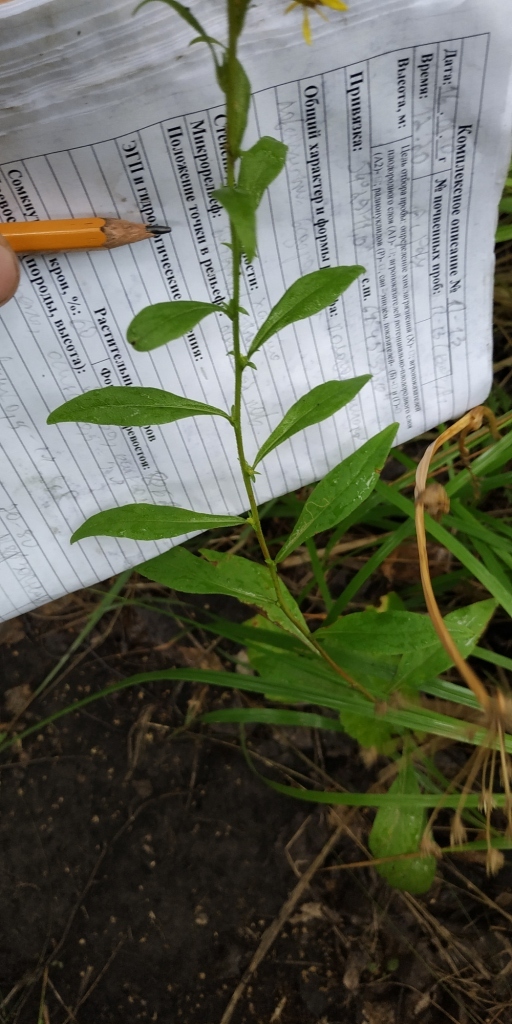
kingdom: Plantae
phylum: Tracheophyta
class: Magnoliopsida
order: Asterales
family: Asteraceae
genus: Solidago
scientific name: Solidago virgaurea
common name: Goldenrod
